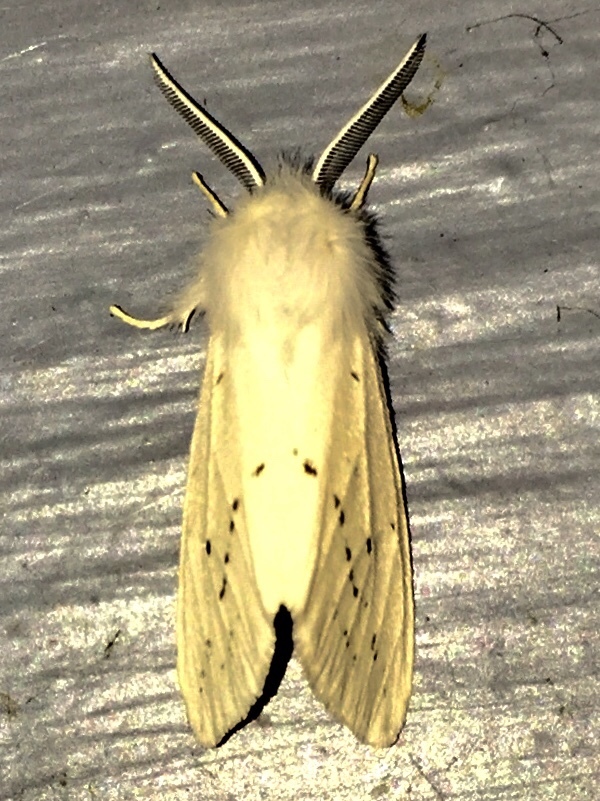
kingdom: Animalia
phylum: Arthropoda
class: Insecta
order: Lepidoptera
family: Erebidae
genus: Spilosoma
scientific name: Spilosoma congrua
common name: Agreeable tiger moth
